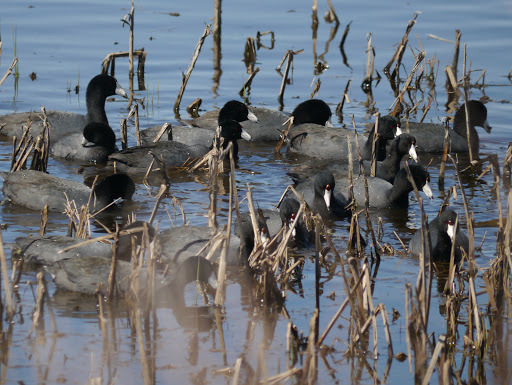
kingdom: Animalia
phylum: Chordata
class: Aves
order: Gruiformes
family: Rallidae
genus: Fulica
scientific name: Fulica americana
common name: American coot
